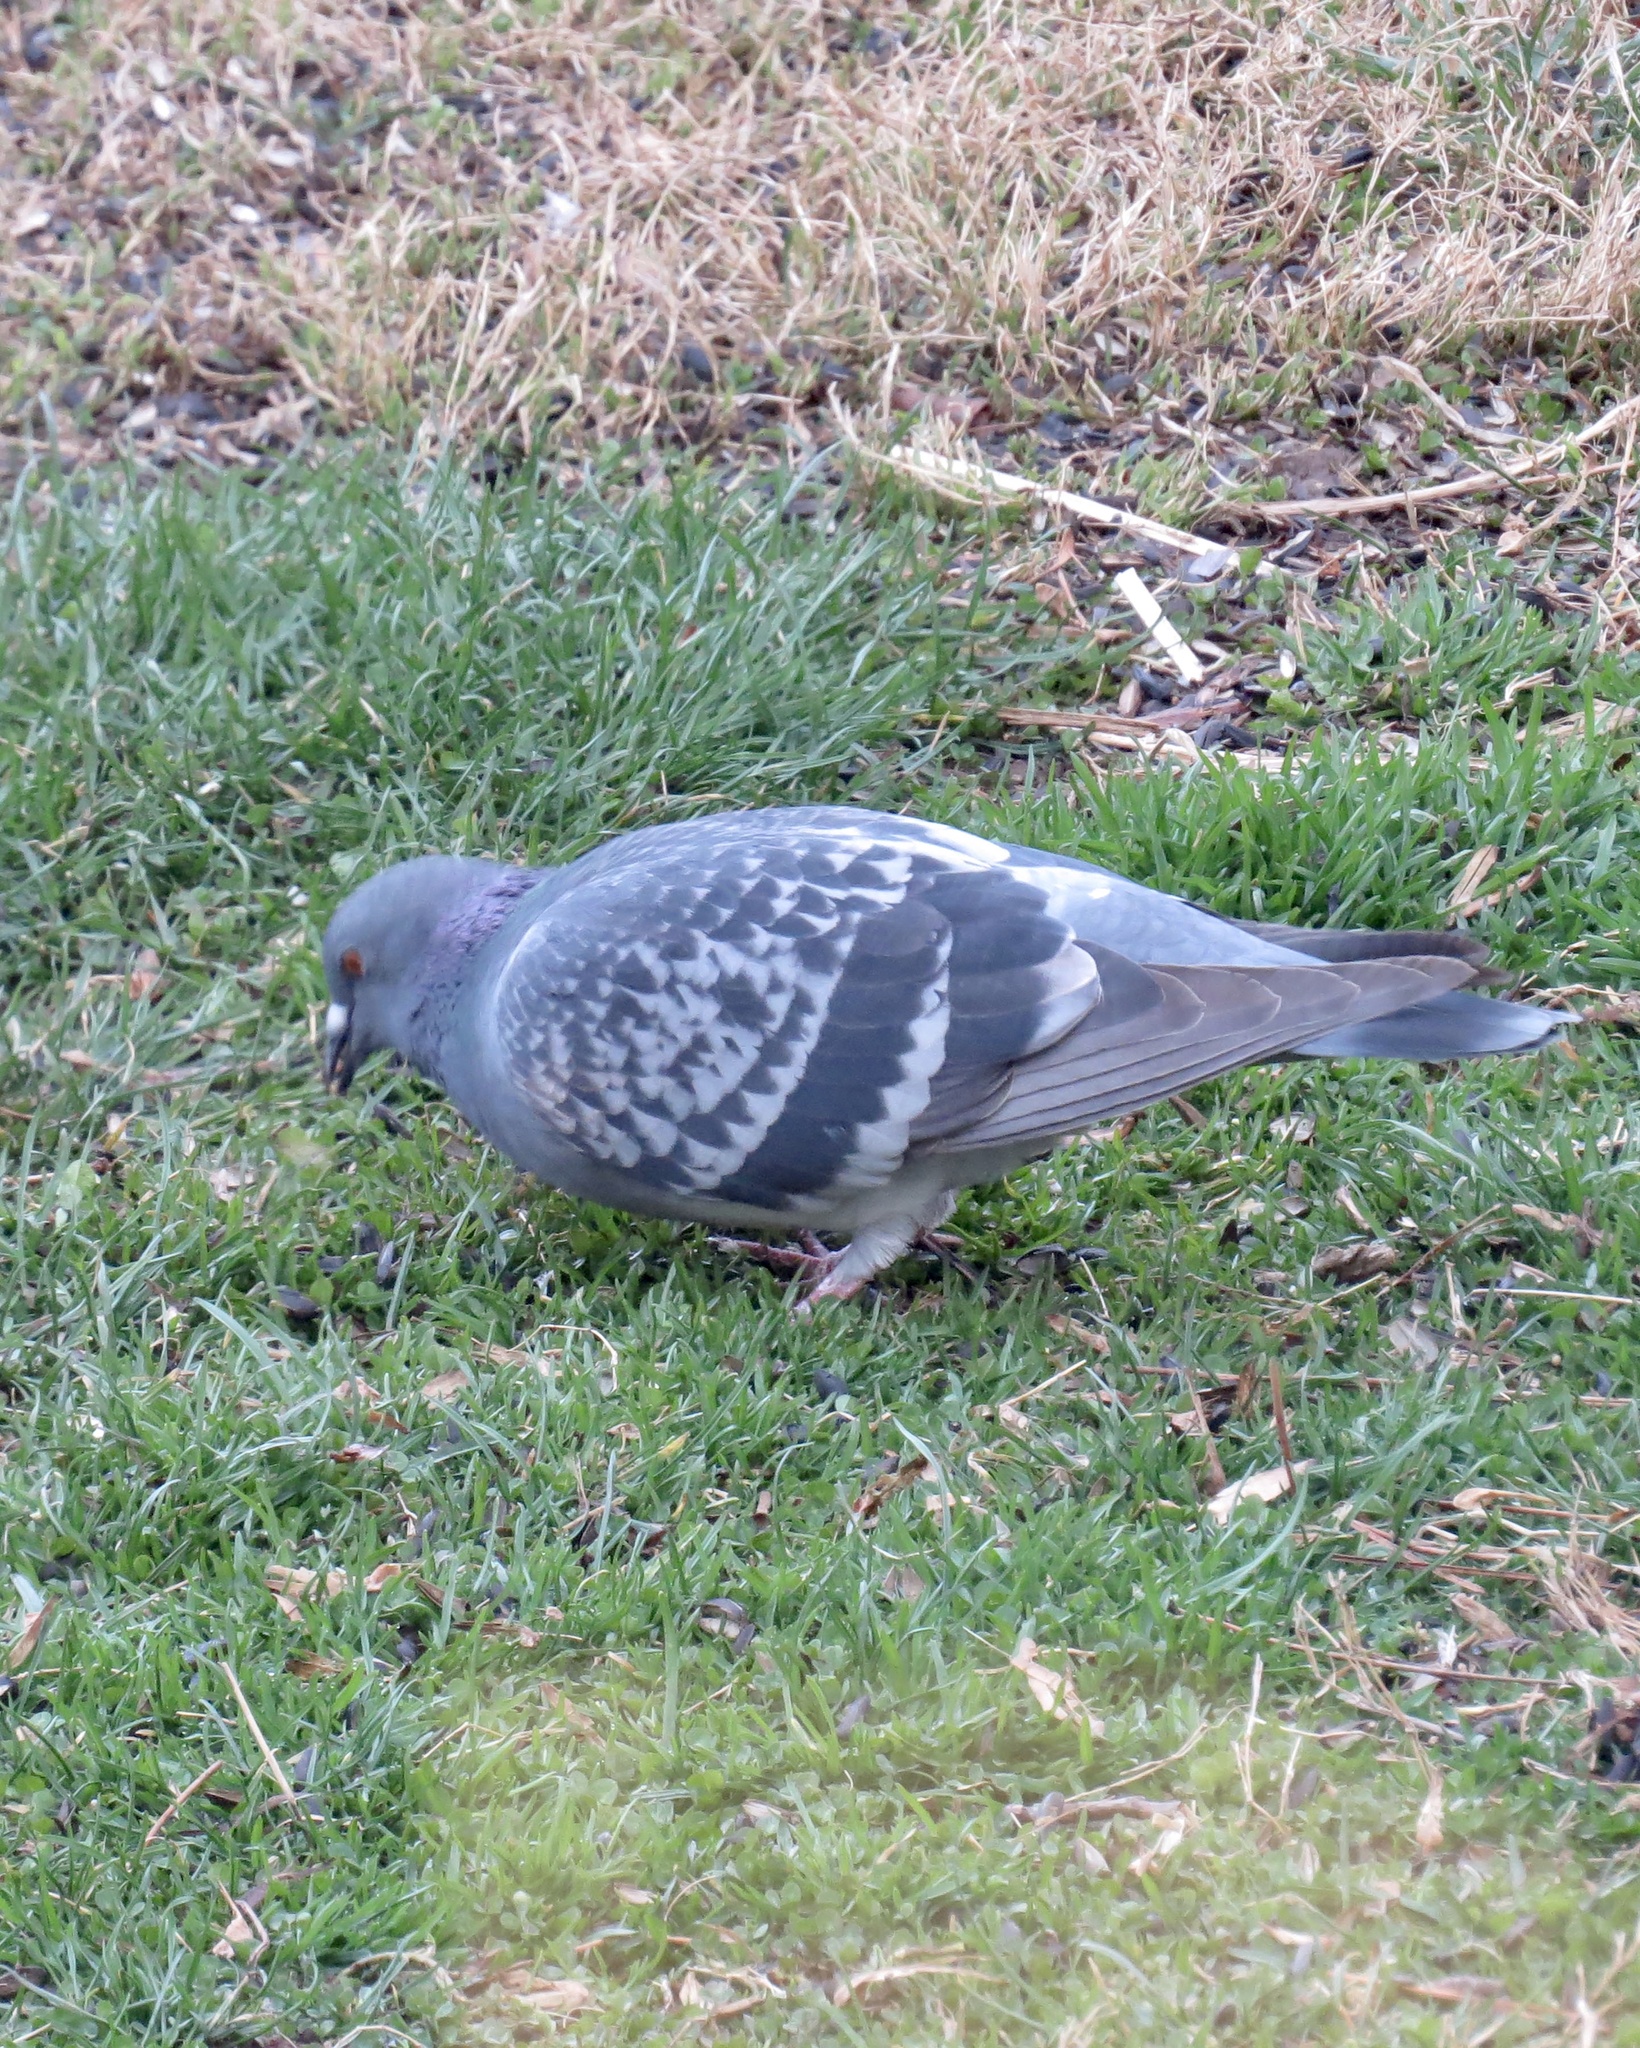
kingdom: Animalia
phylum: Chordata
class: Aves
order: Columbiformes
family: Columbidae
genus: Columba
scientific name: Columba livia
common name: Rock pigeon
